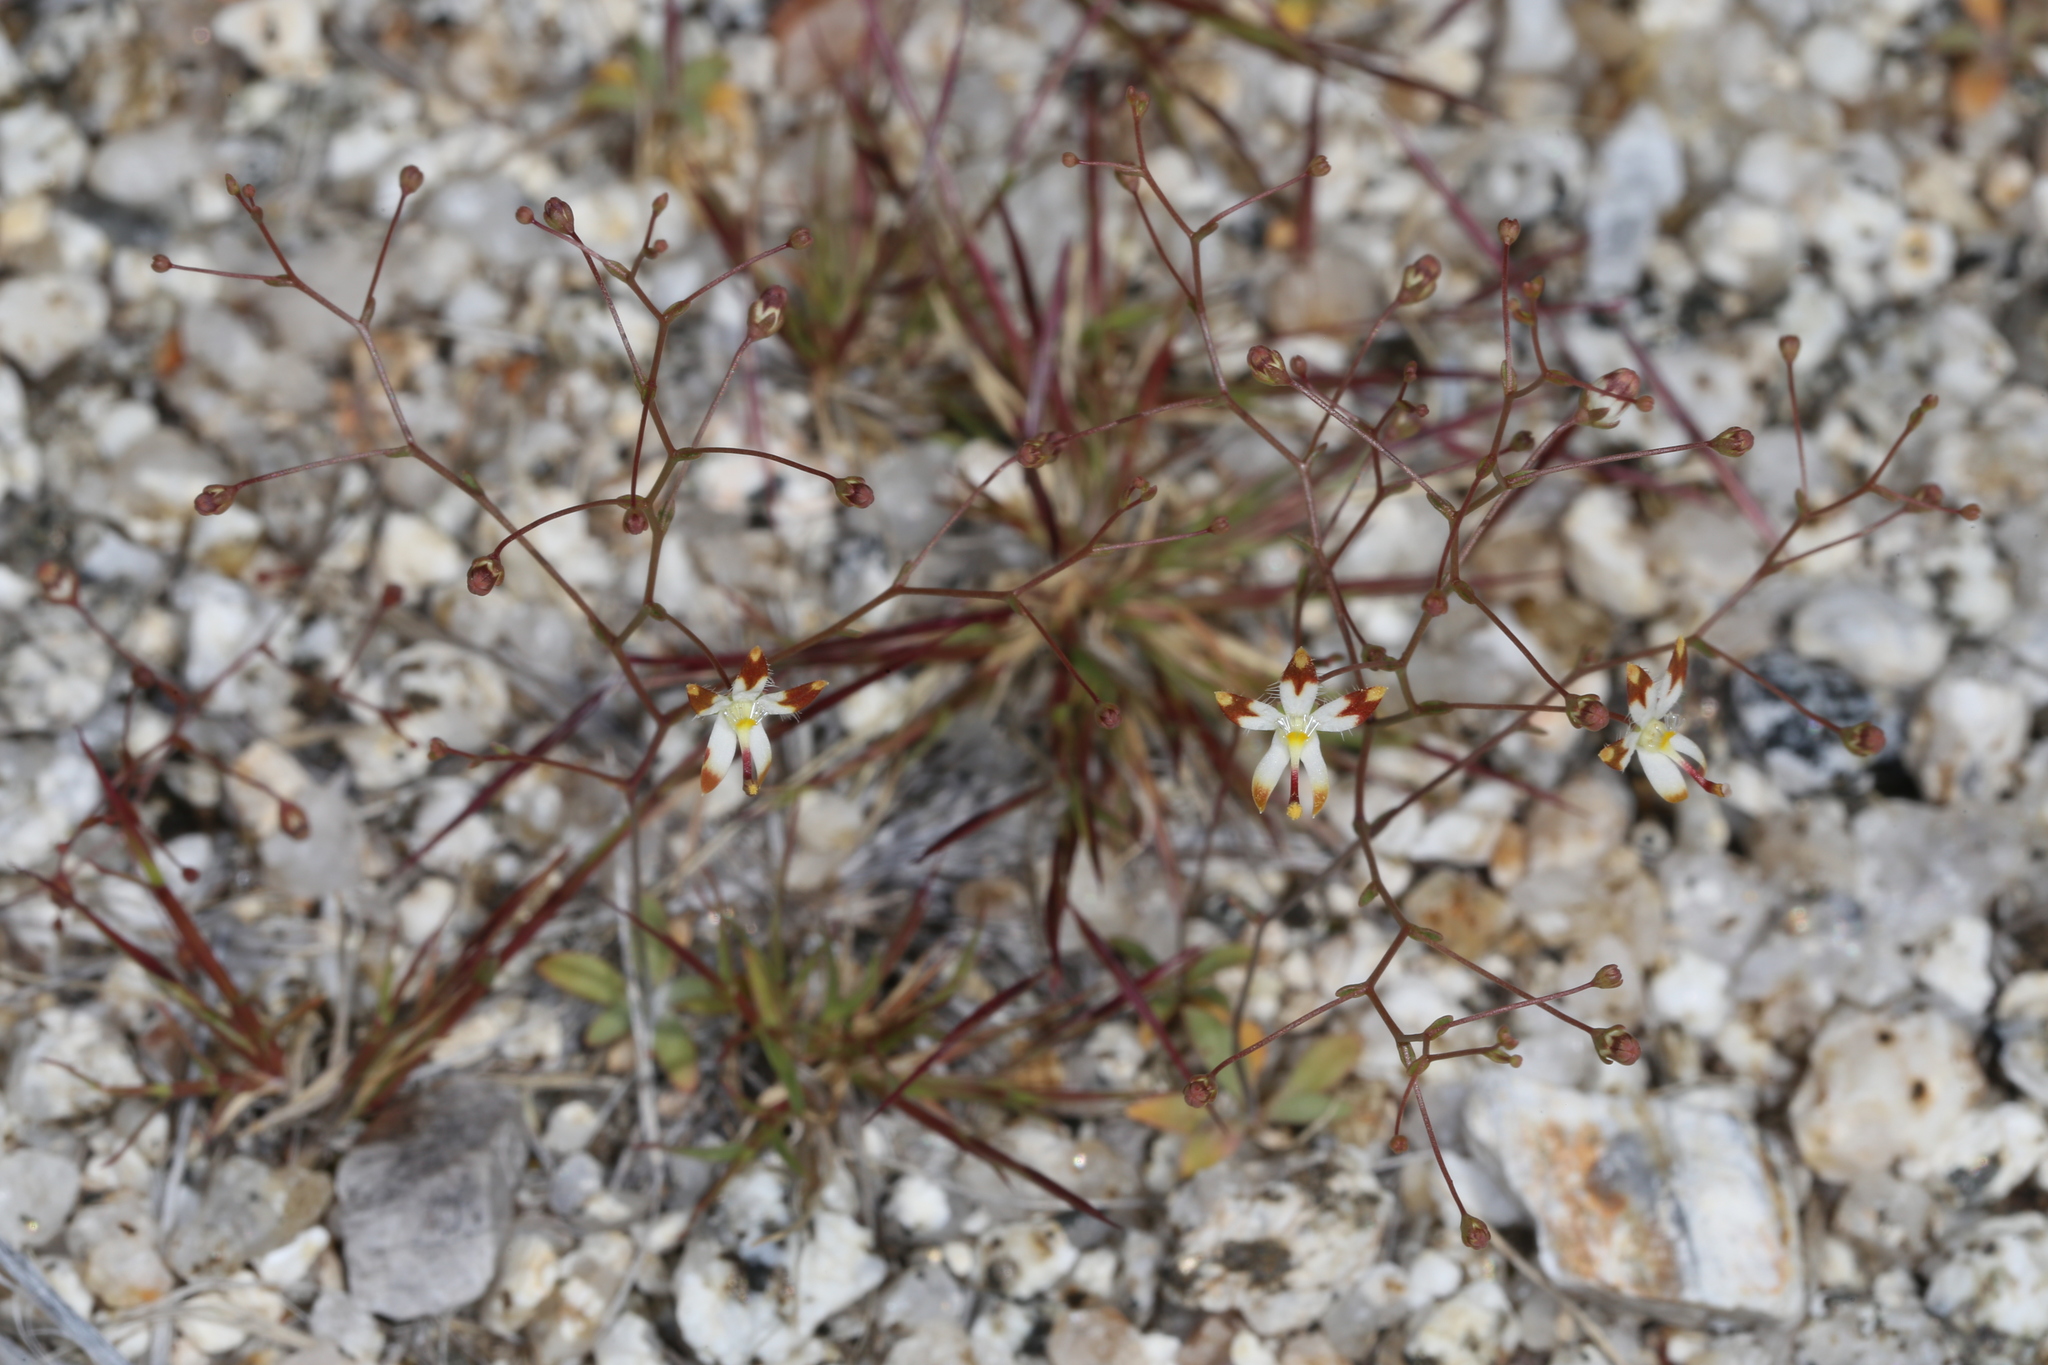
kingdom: Plantae
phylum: Tracheophyta
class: Magnoliopsida
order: Asterales
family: Campanulaceae
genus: Nemacladus
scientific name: Nemacladus rubescens
